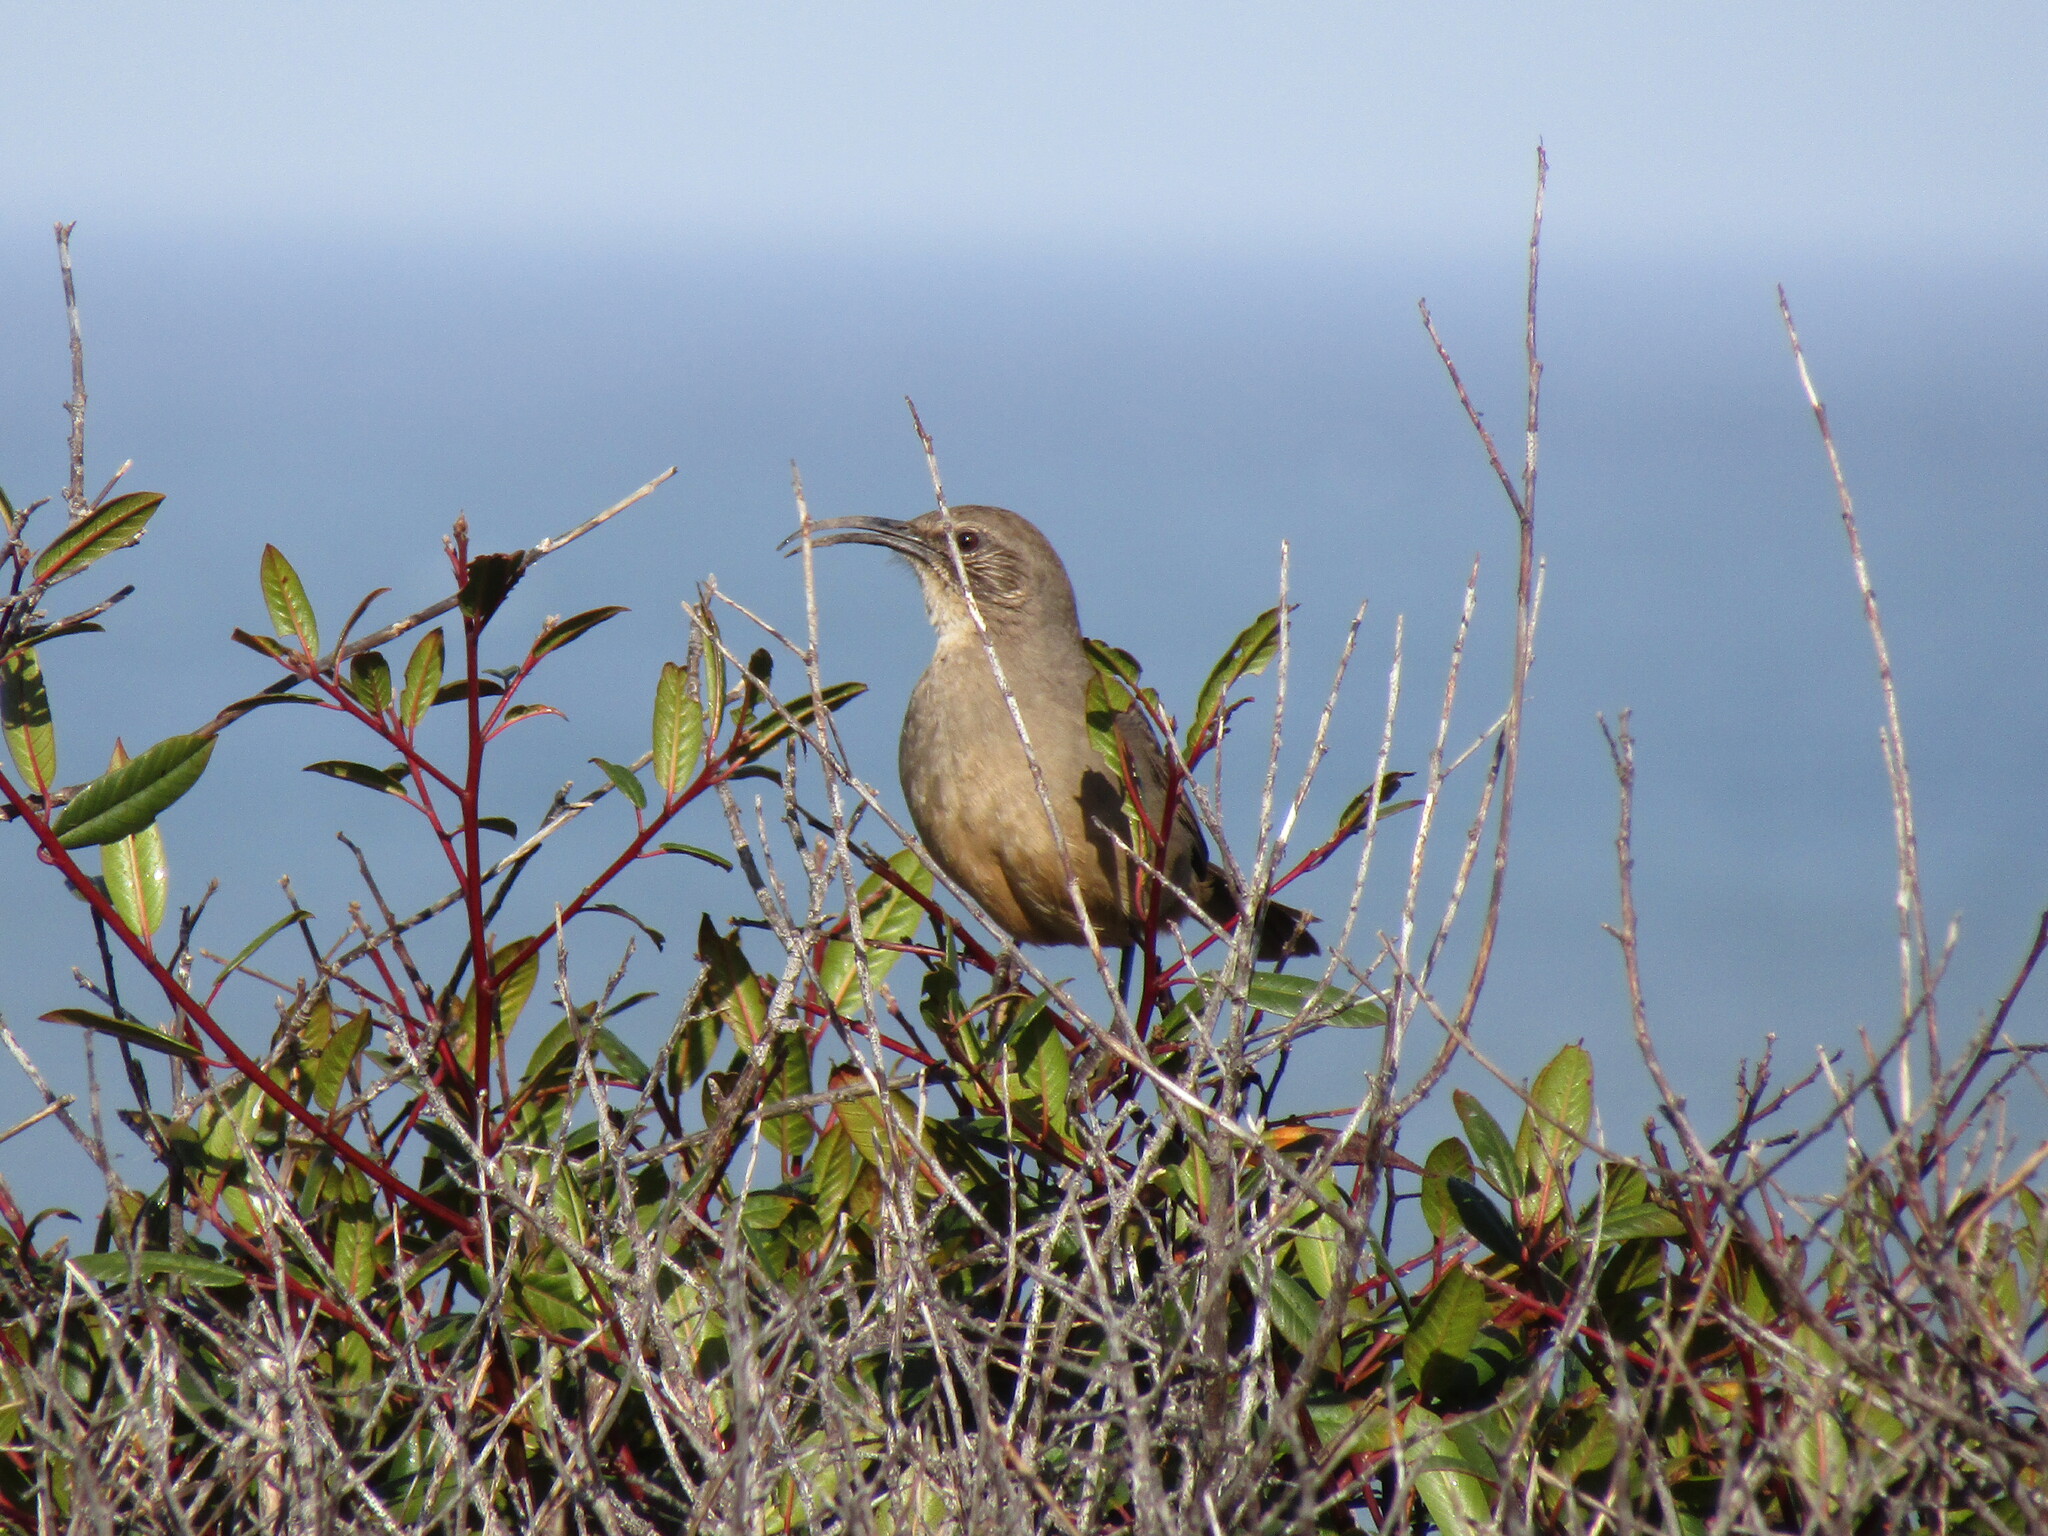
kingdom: Animalia
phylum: Chordata
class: Aves
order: Passeriformes
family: Mimidae
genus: Toxostoma
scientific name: Toxostoma redivivum
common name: California thrasher
